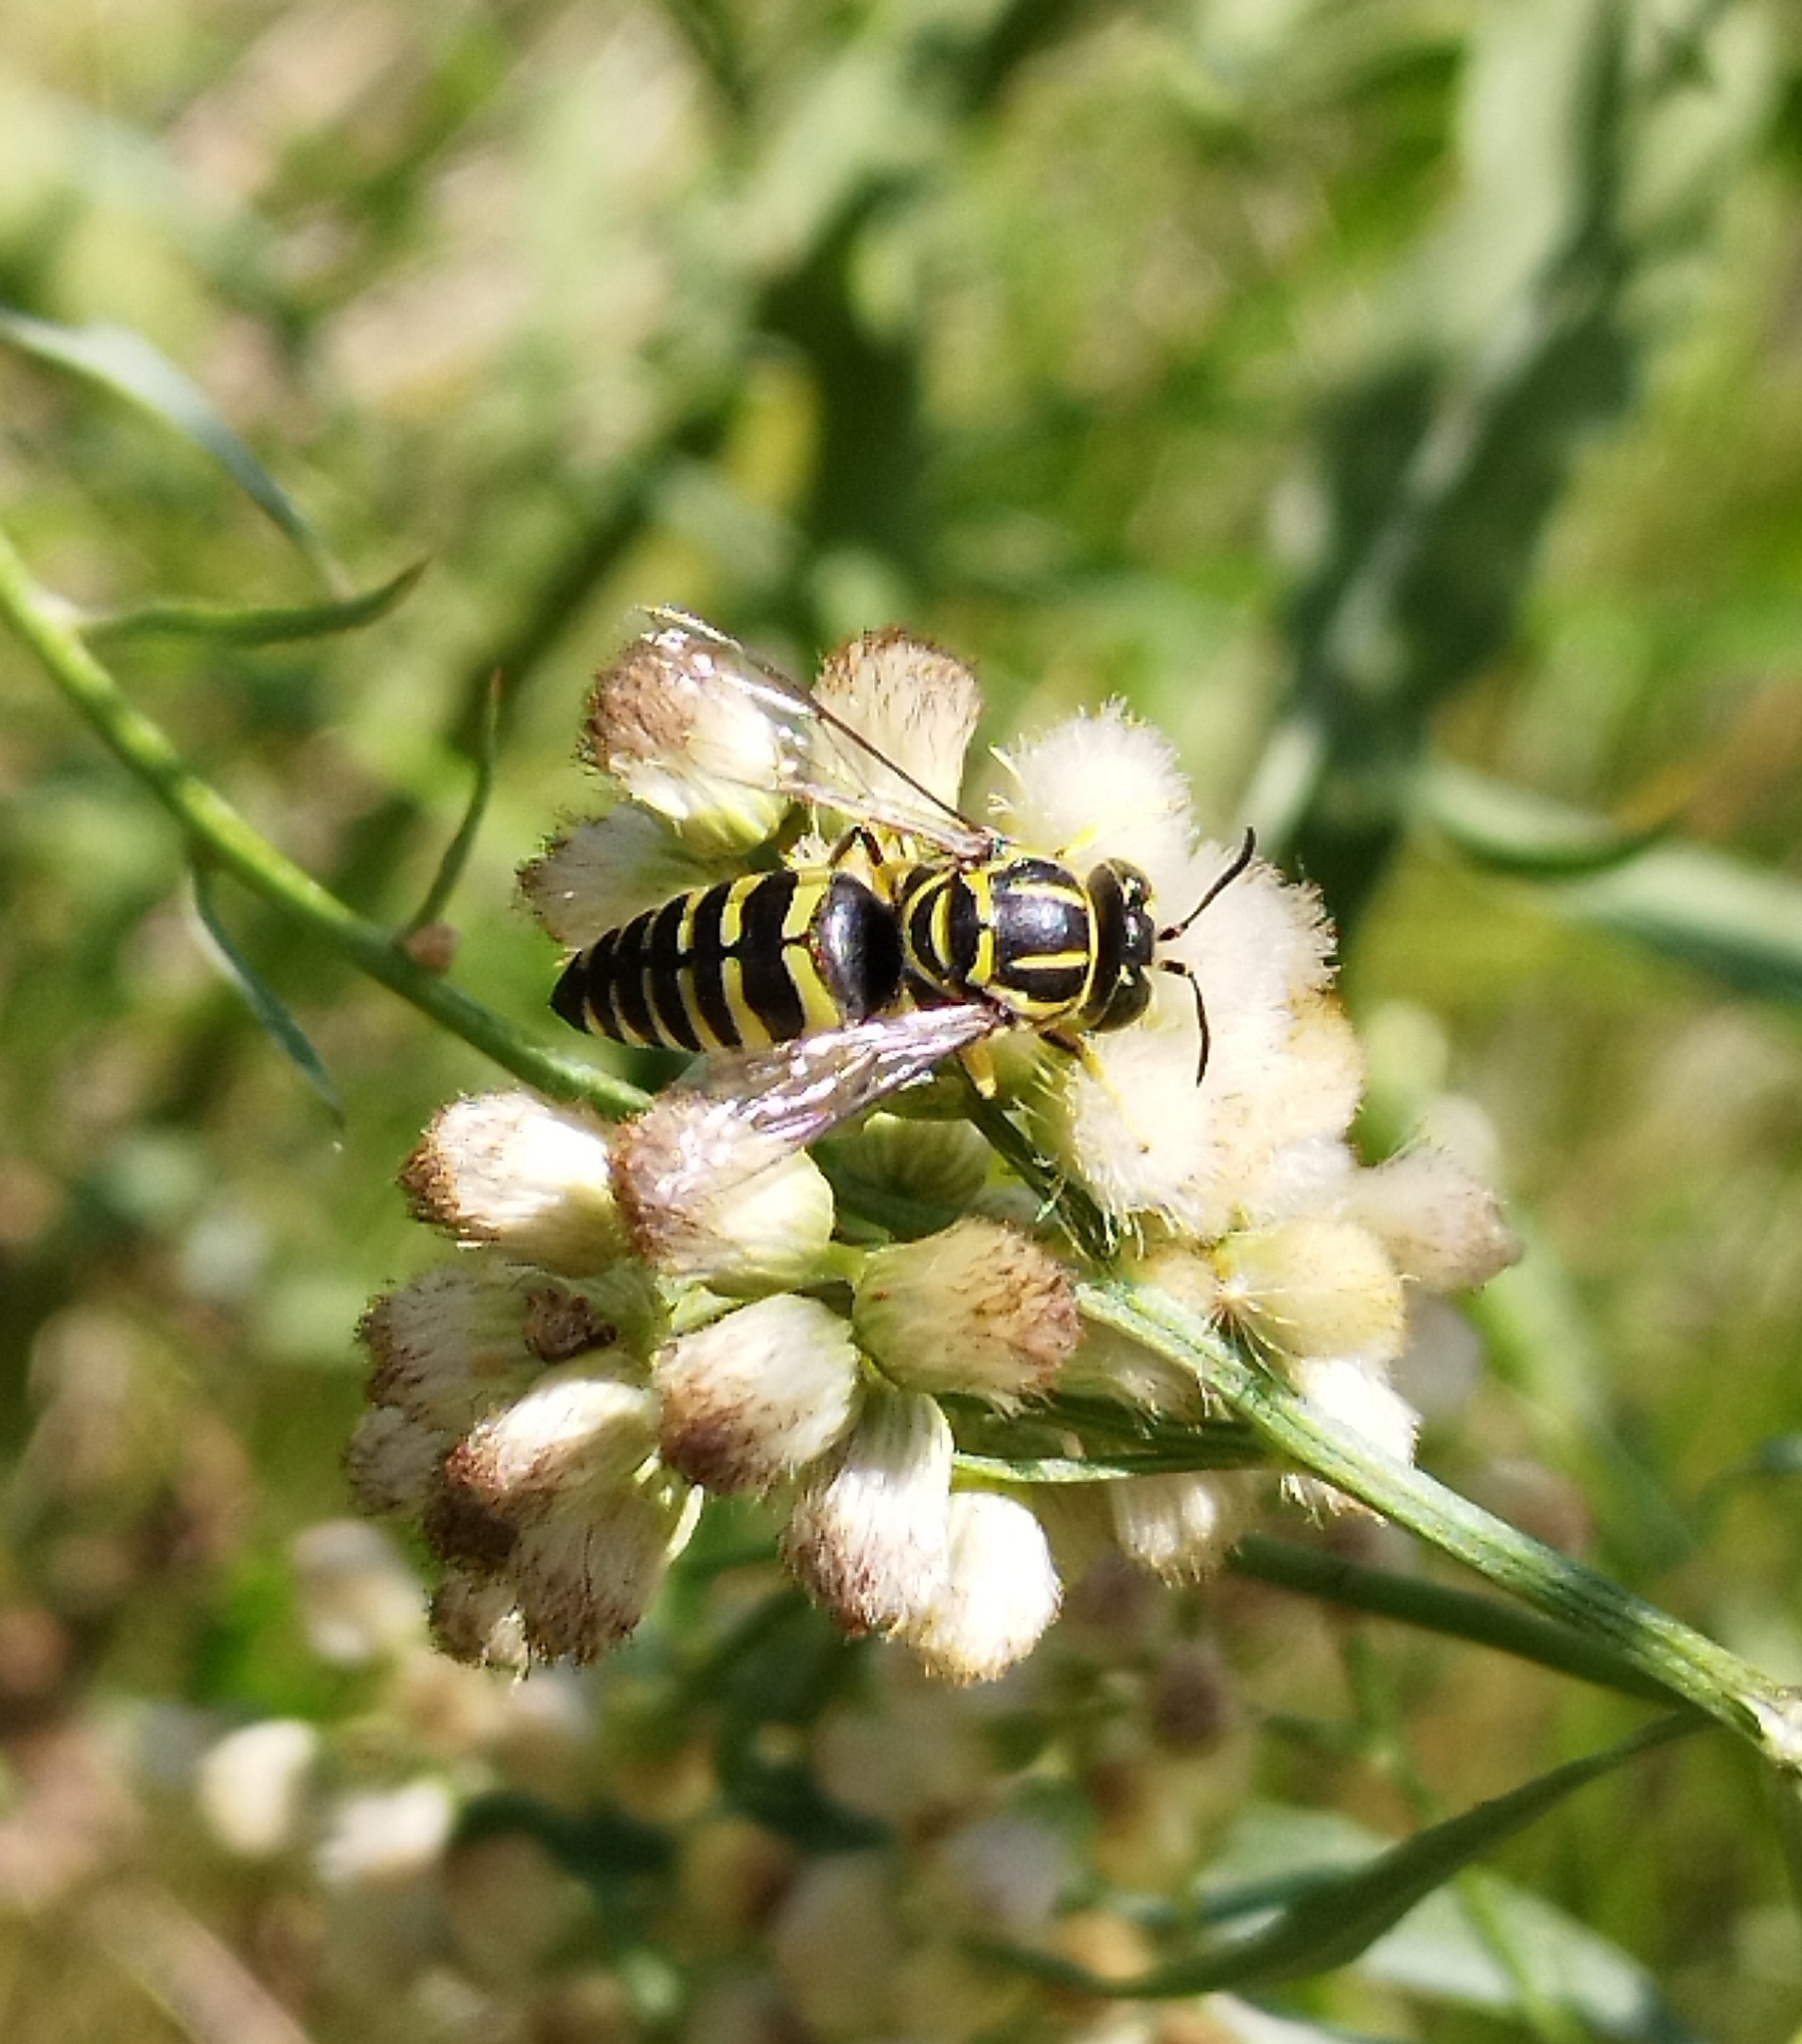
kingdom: Animalia
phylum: Arthropoda
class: Insecta
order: Hymenoptera
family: Crabronidae
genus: Bicyrtes
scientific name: Bicyrtes variegatus
